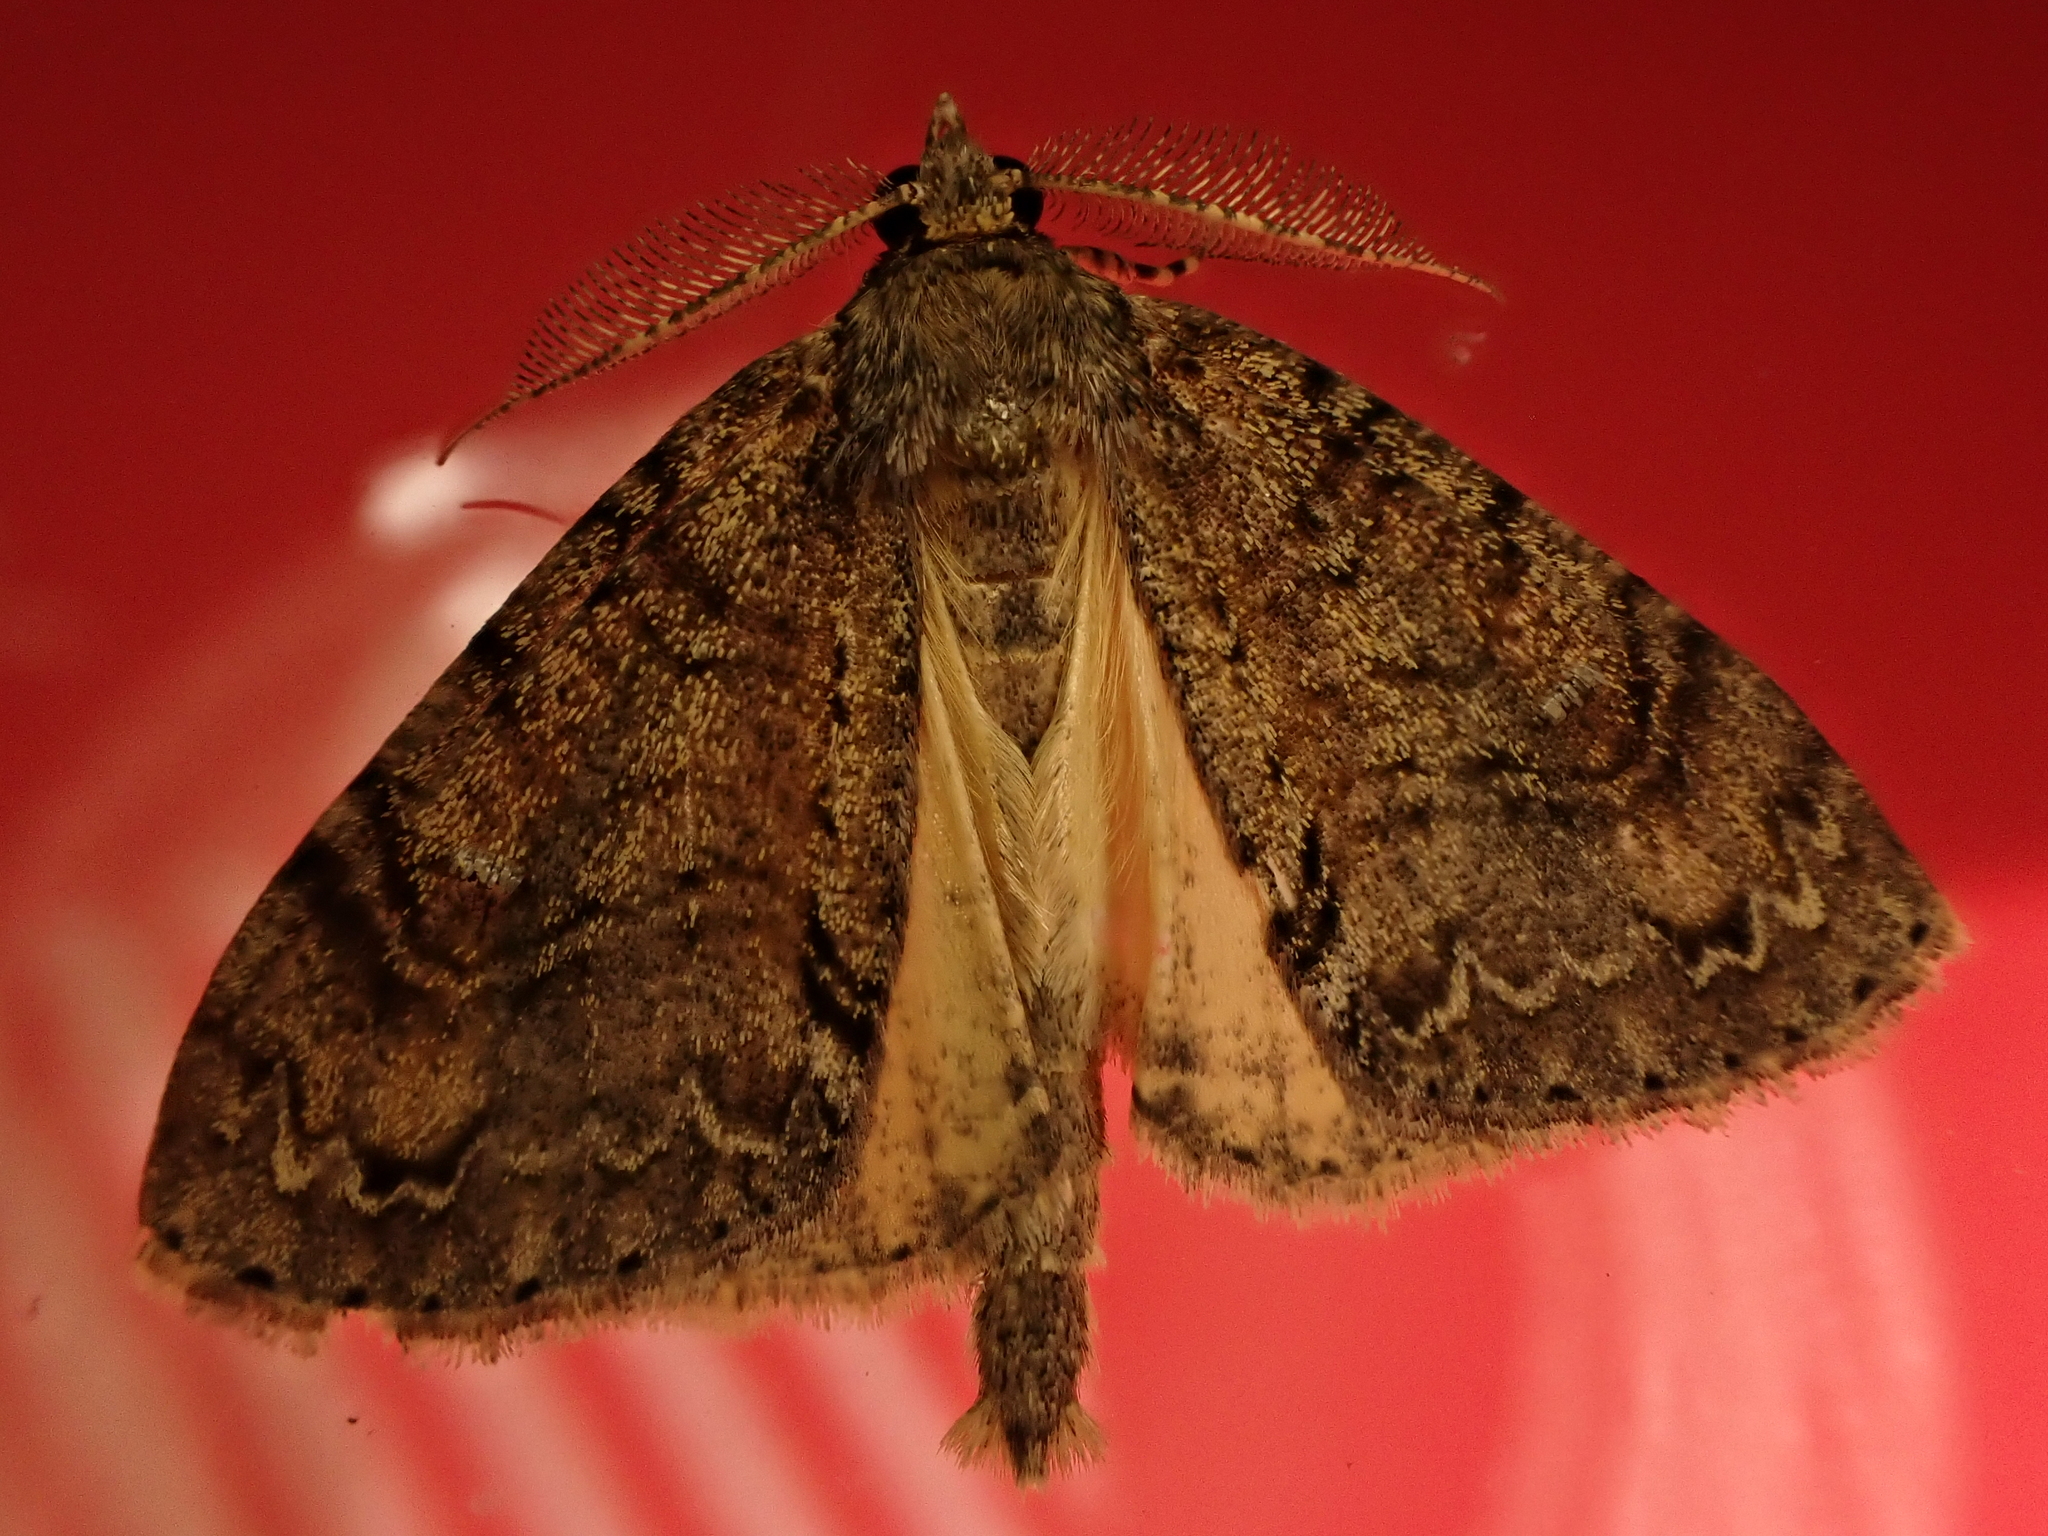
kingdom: Animalia
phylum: Arthropoda
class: Insecta
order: Lepidoptera
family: Geometridae
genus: Pseudocoremia
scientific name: Pseudocoremia suavis
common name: Common forest looper
